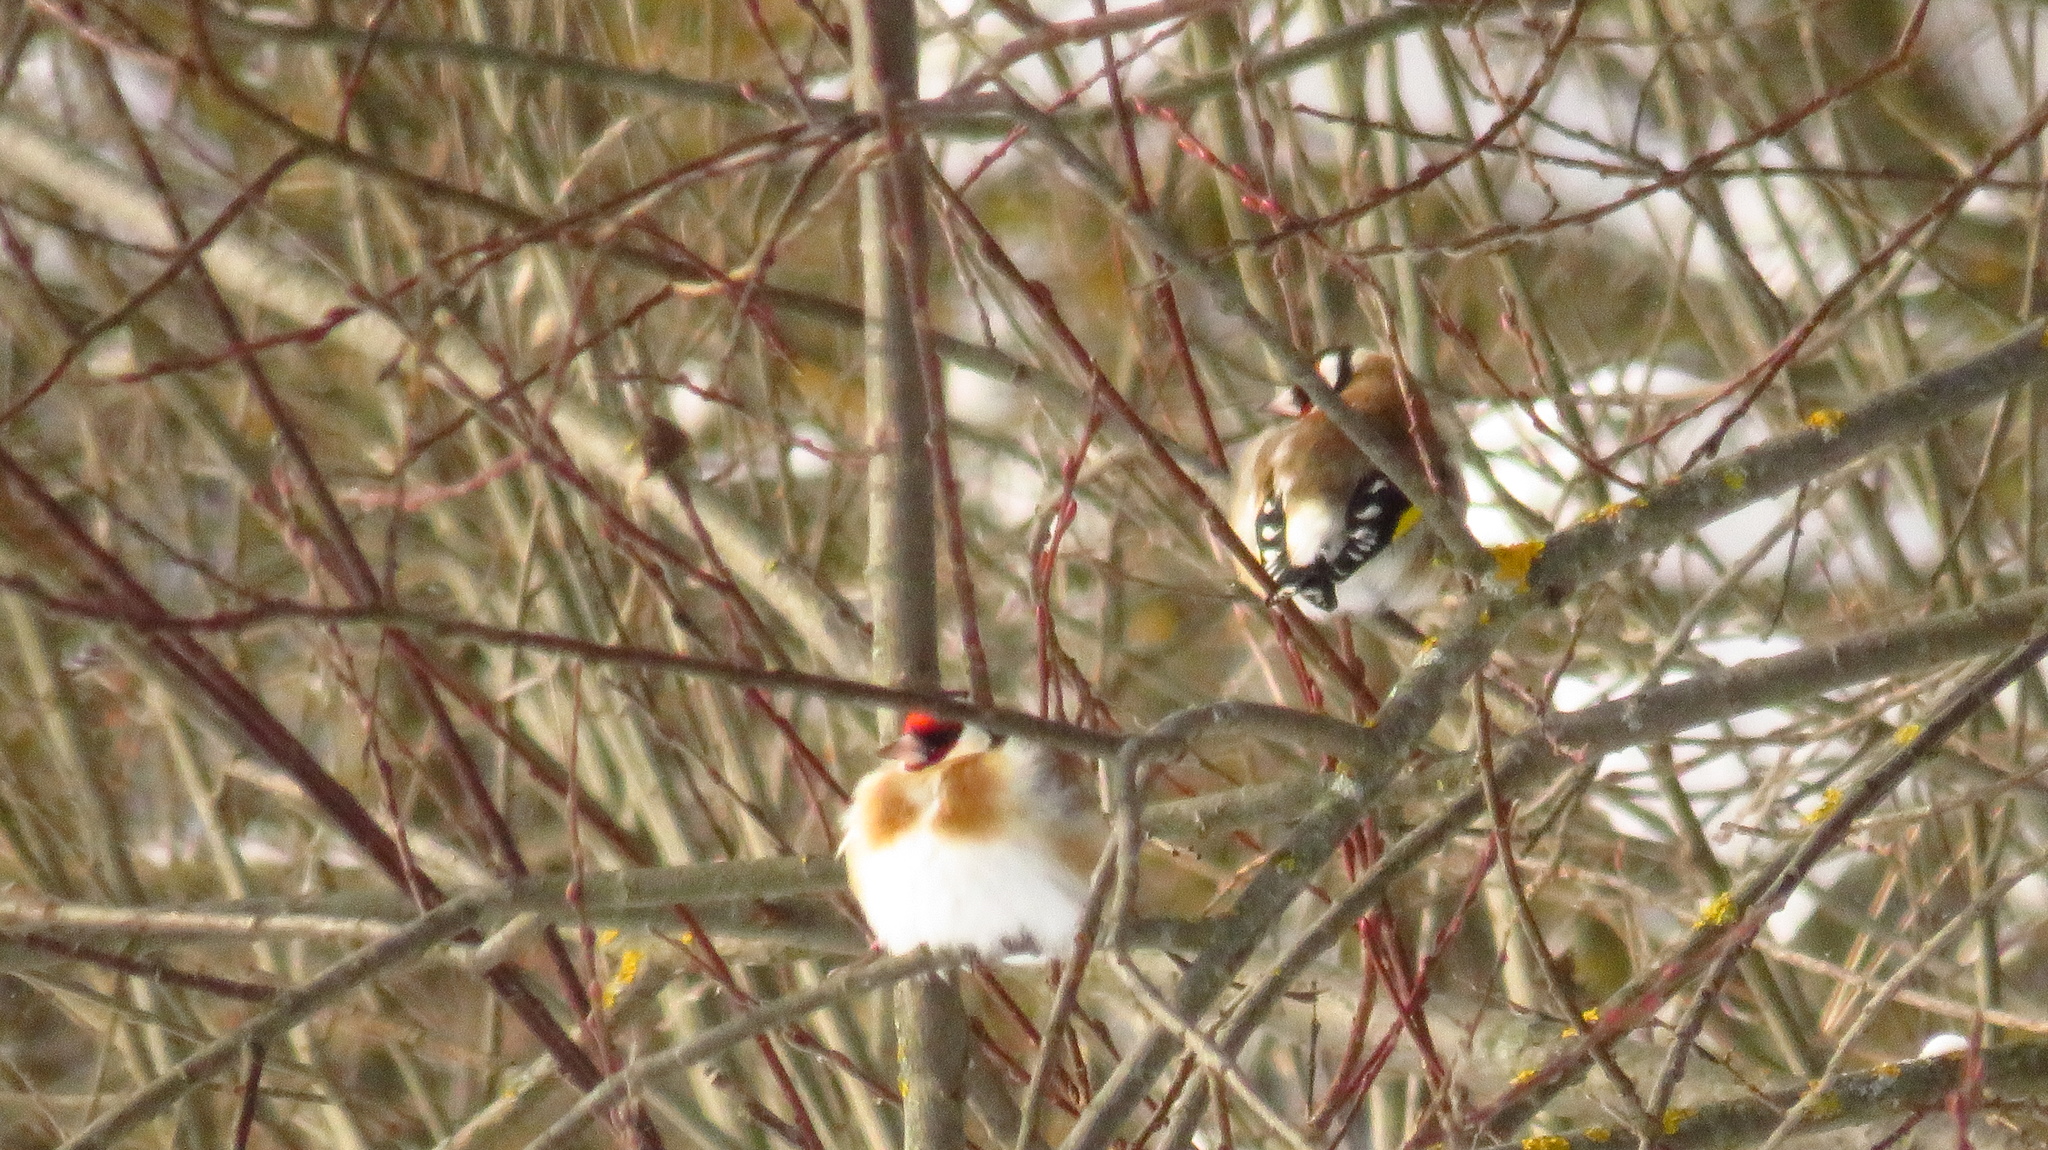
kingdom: Animalia
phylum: Chordata
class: Aves
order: Passeriformes
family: Fringillidae
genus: Carduelis
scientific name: Carduelis carduelis
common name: European goldfinch
